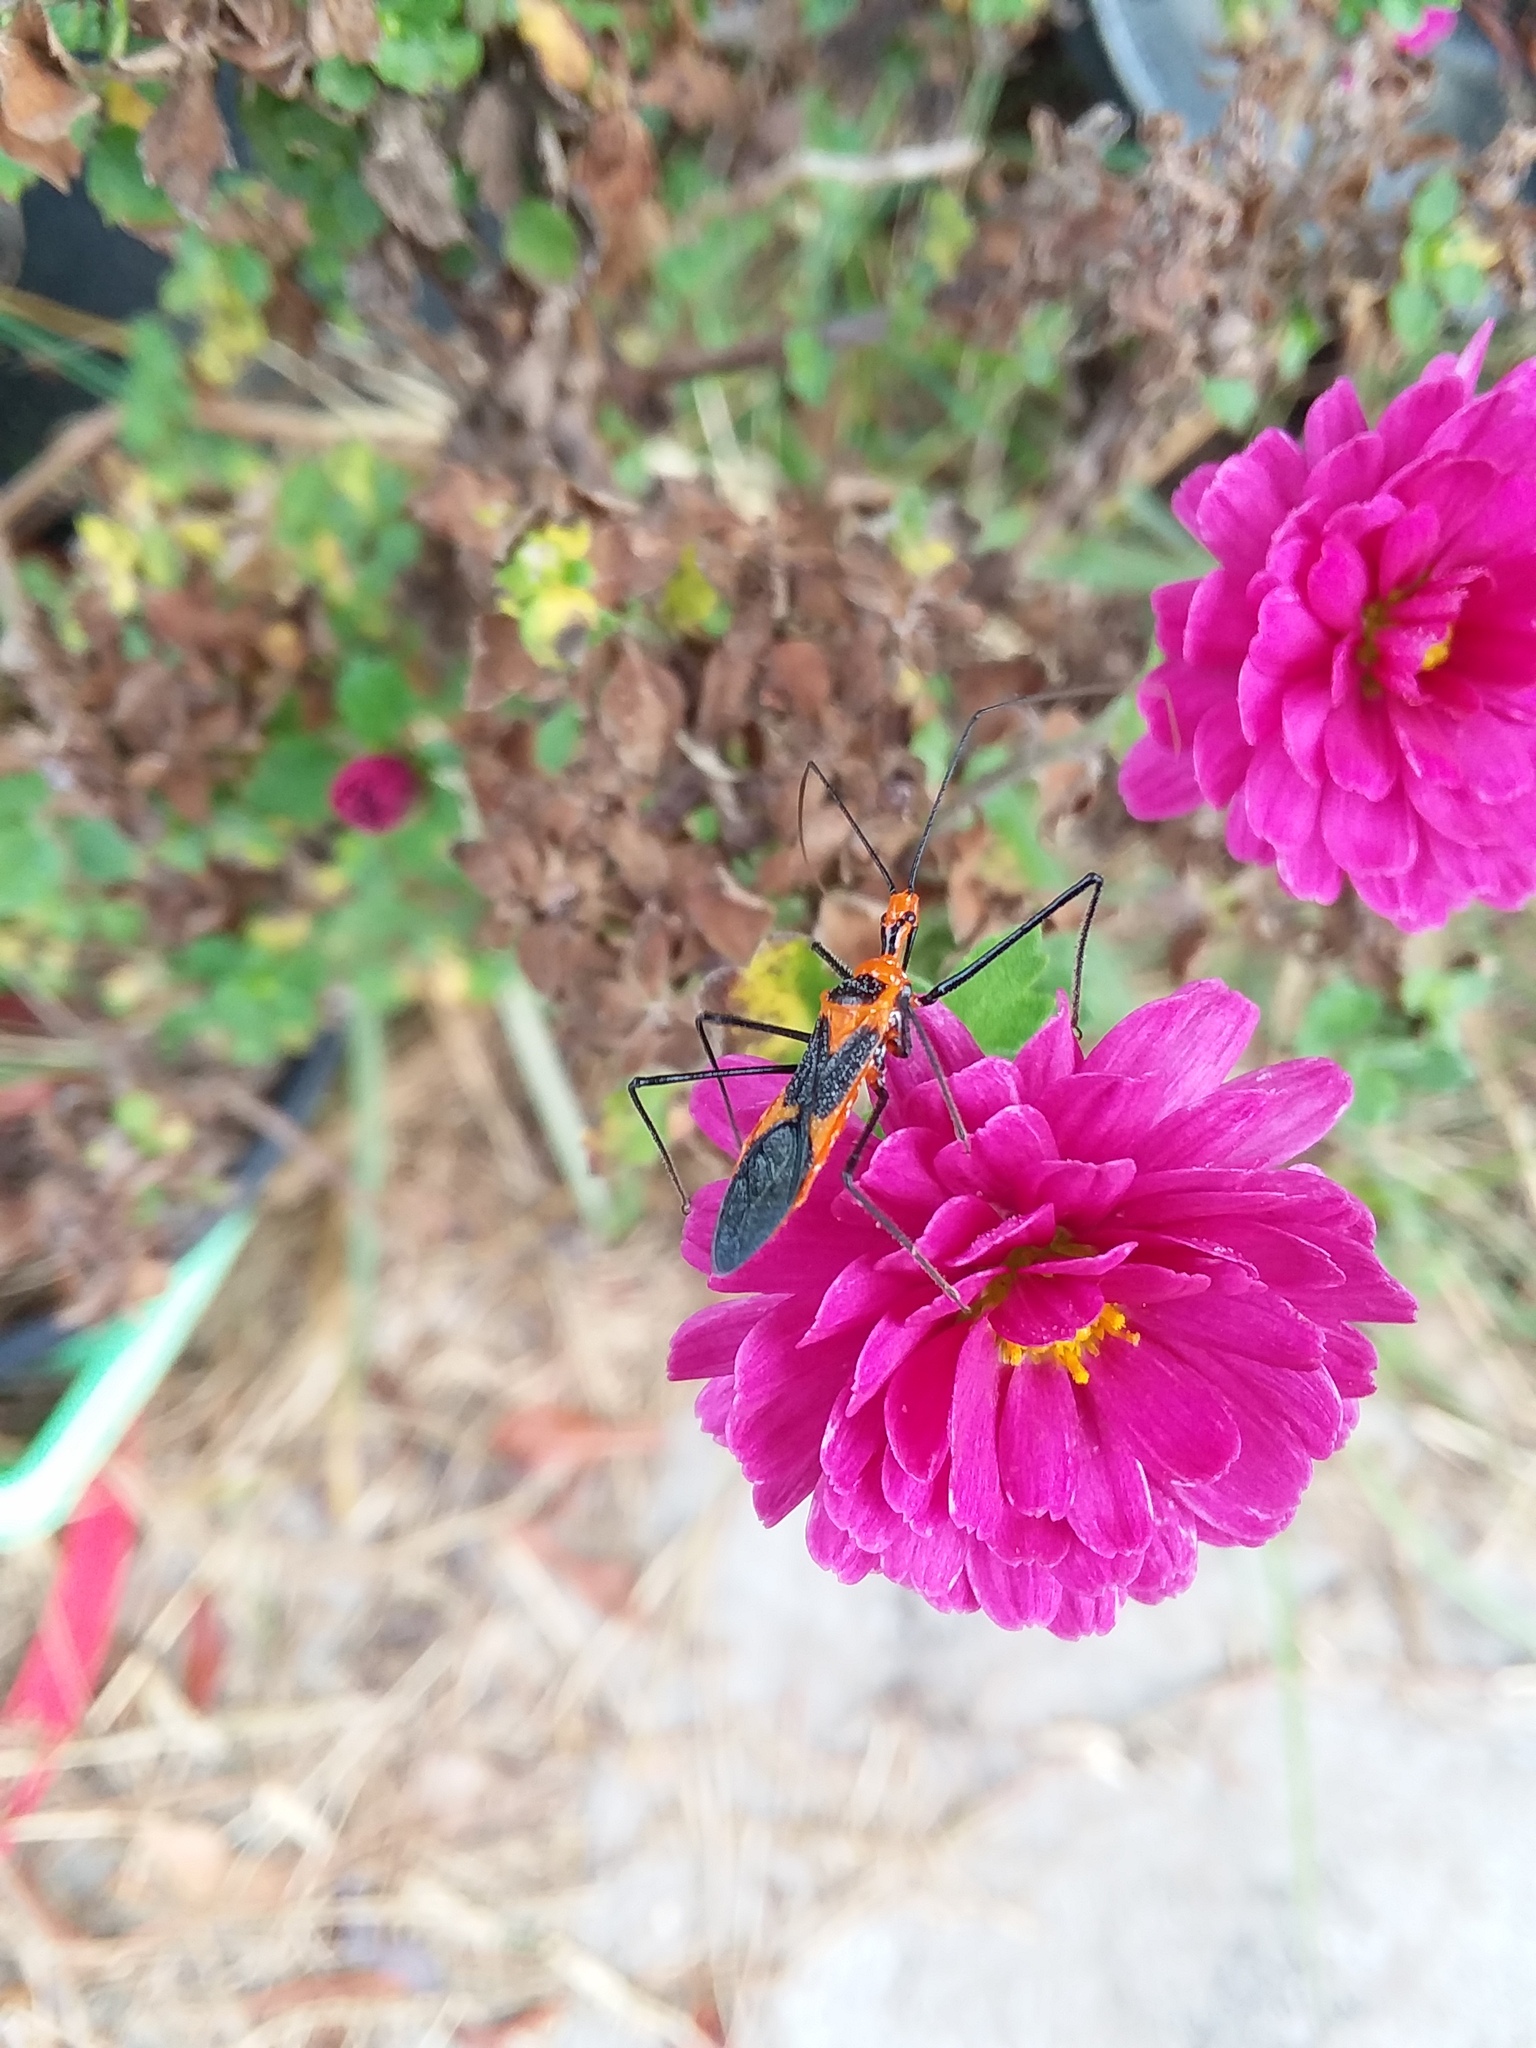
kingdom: Animalia
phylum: Arthropoda
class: Insecta
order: Hemiptera
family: Reduviidae
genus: Zelus
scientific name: Zelus longipes
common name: Milkweed assassin bug
